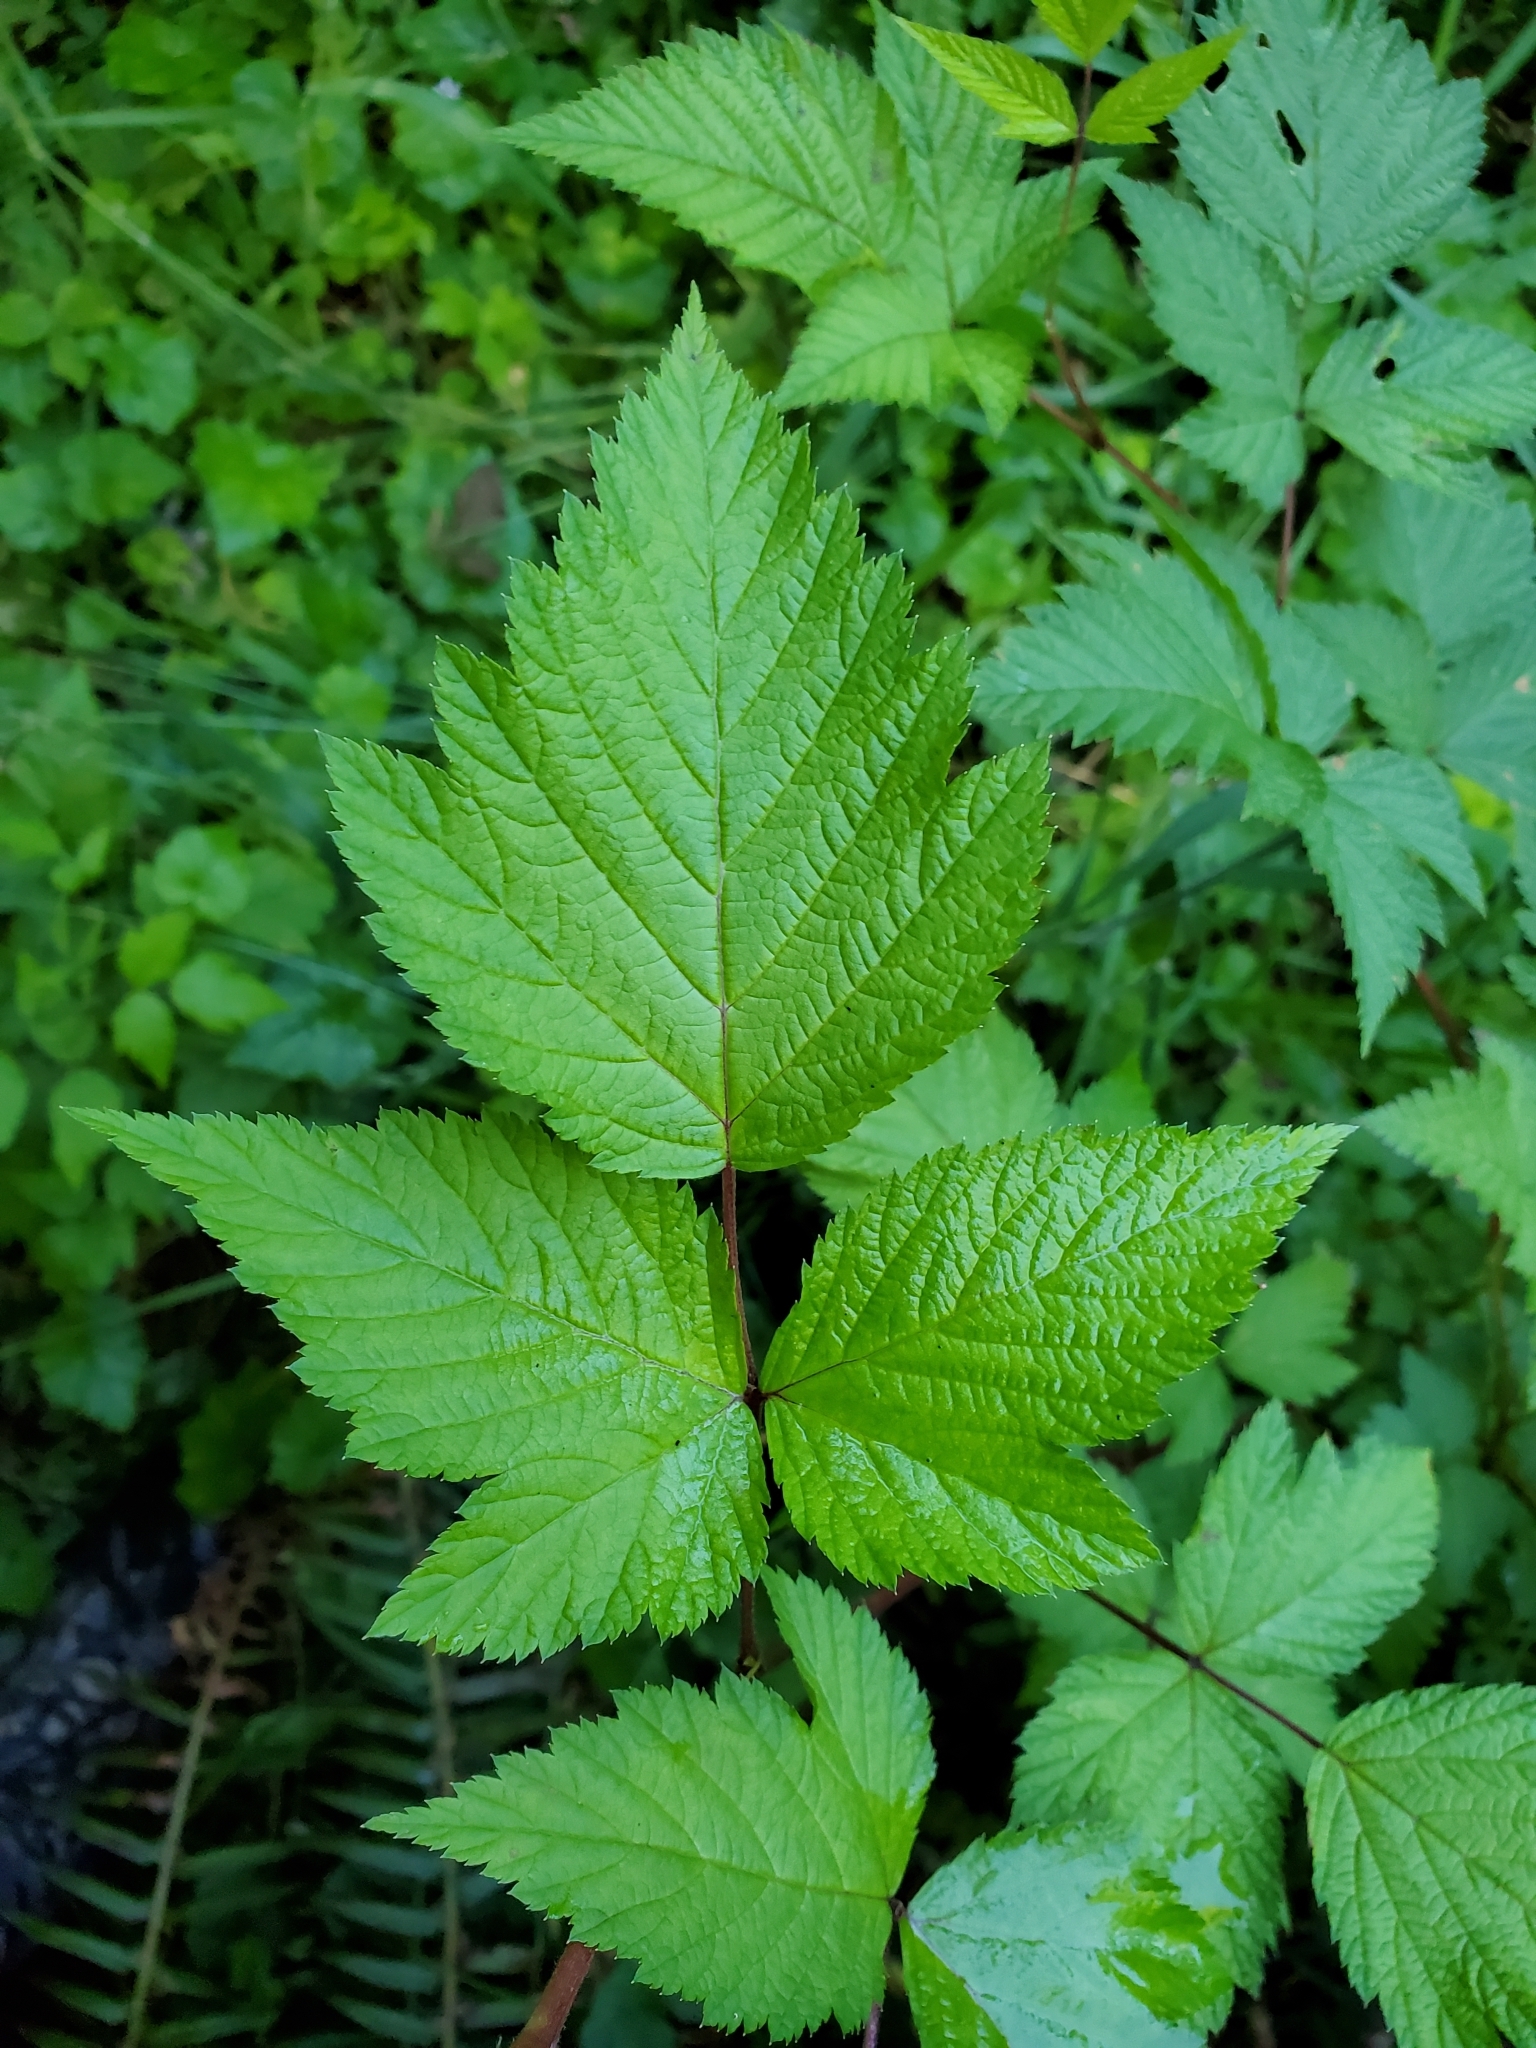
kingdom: Plantae
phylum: Tracheophyta
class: Magnoliopsida
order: Rosales
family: Rosaceae
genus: Rubus
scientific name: Rubus spectabilis
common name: Salmonberry
